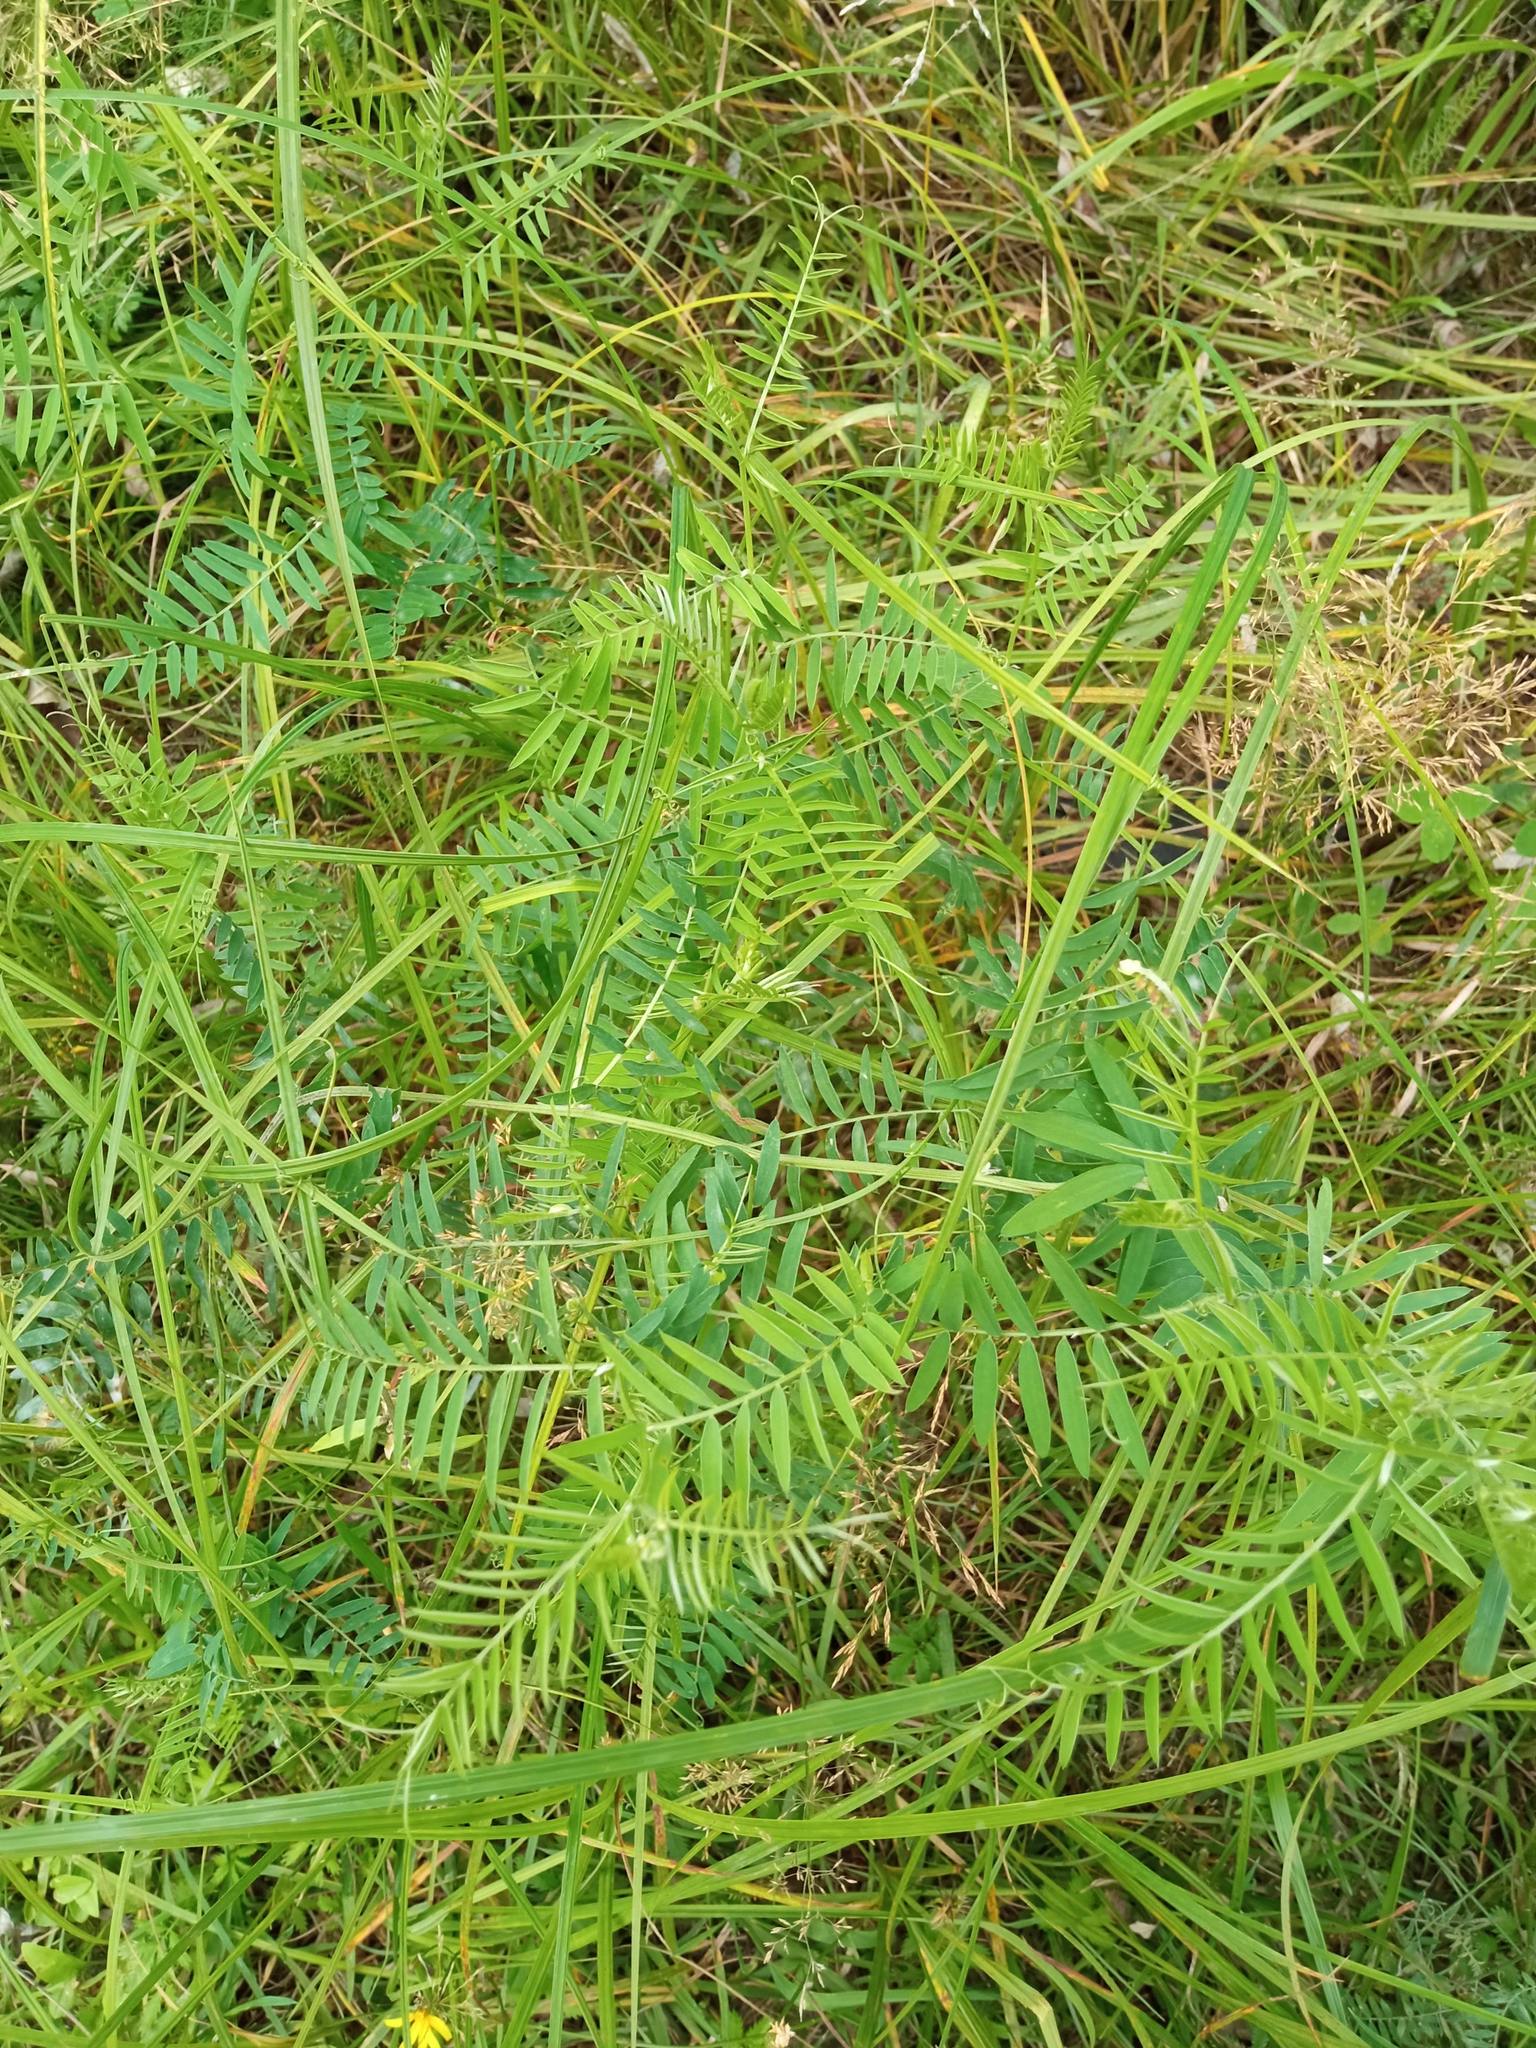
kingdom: Plantae
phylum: Tracheophyta
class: Magnoliopsida
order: Fabales
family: Fabaceae
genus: Vicia
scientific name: Vicia cracca
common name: Bird vetch
